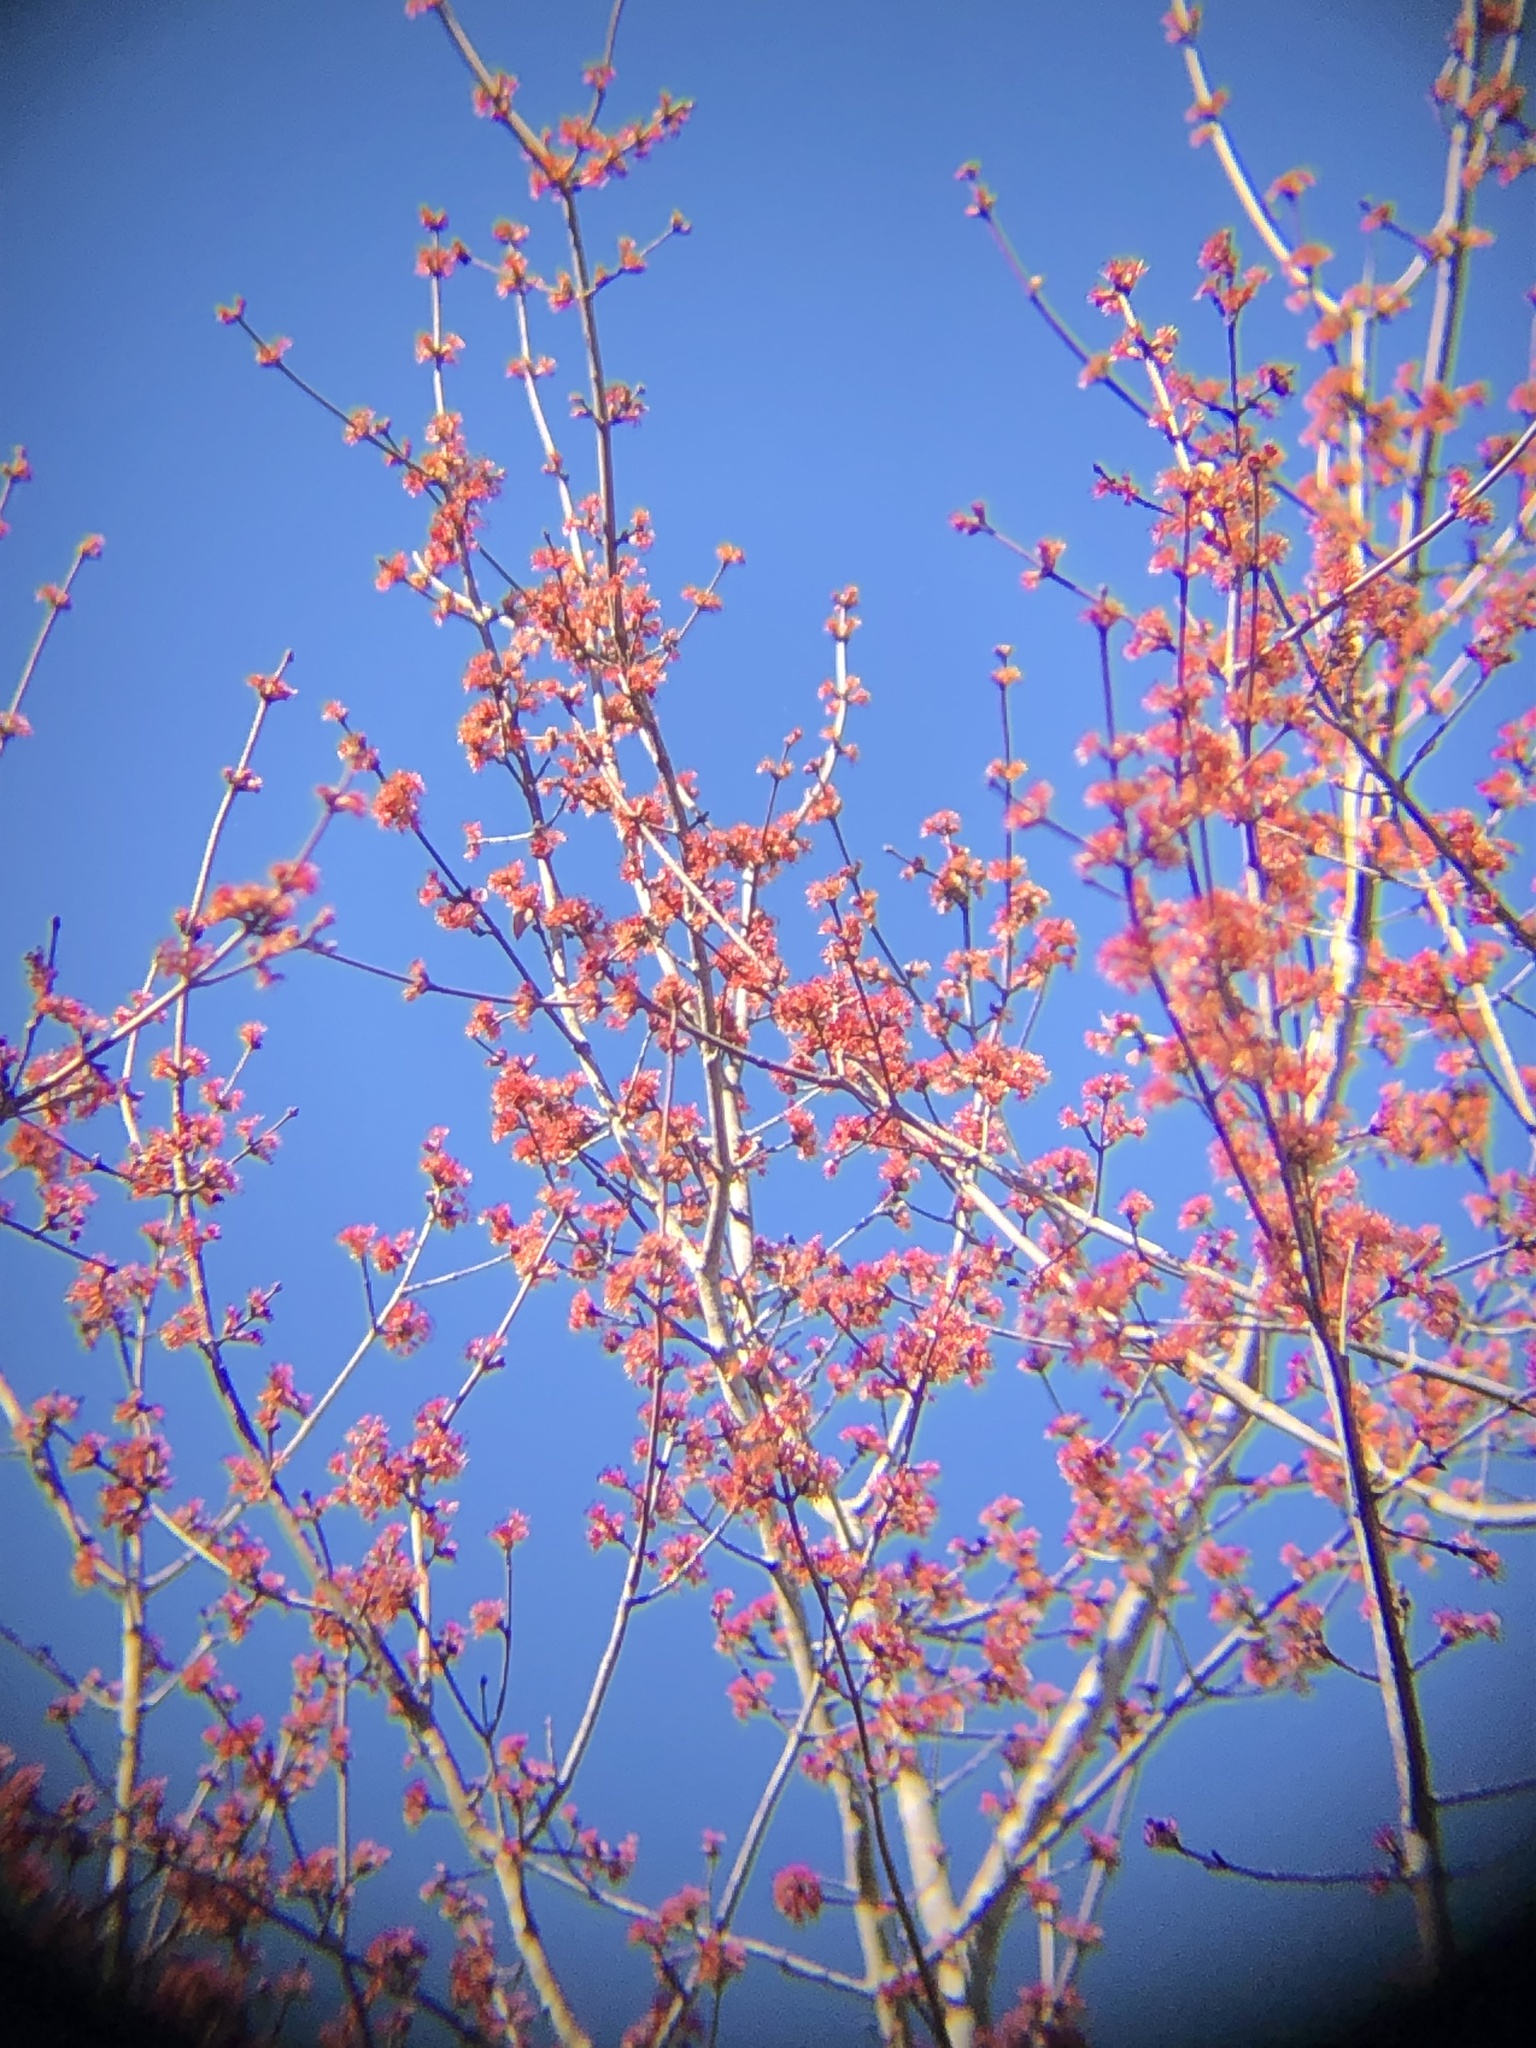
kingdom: Plantae
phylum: Tracheophyta
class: Magnoliopsida
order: Sapindales
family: Sapindaceae
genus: Acer
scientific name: Acer rubrum
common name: Red maple
